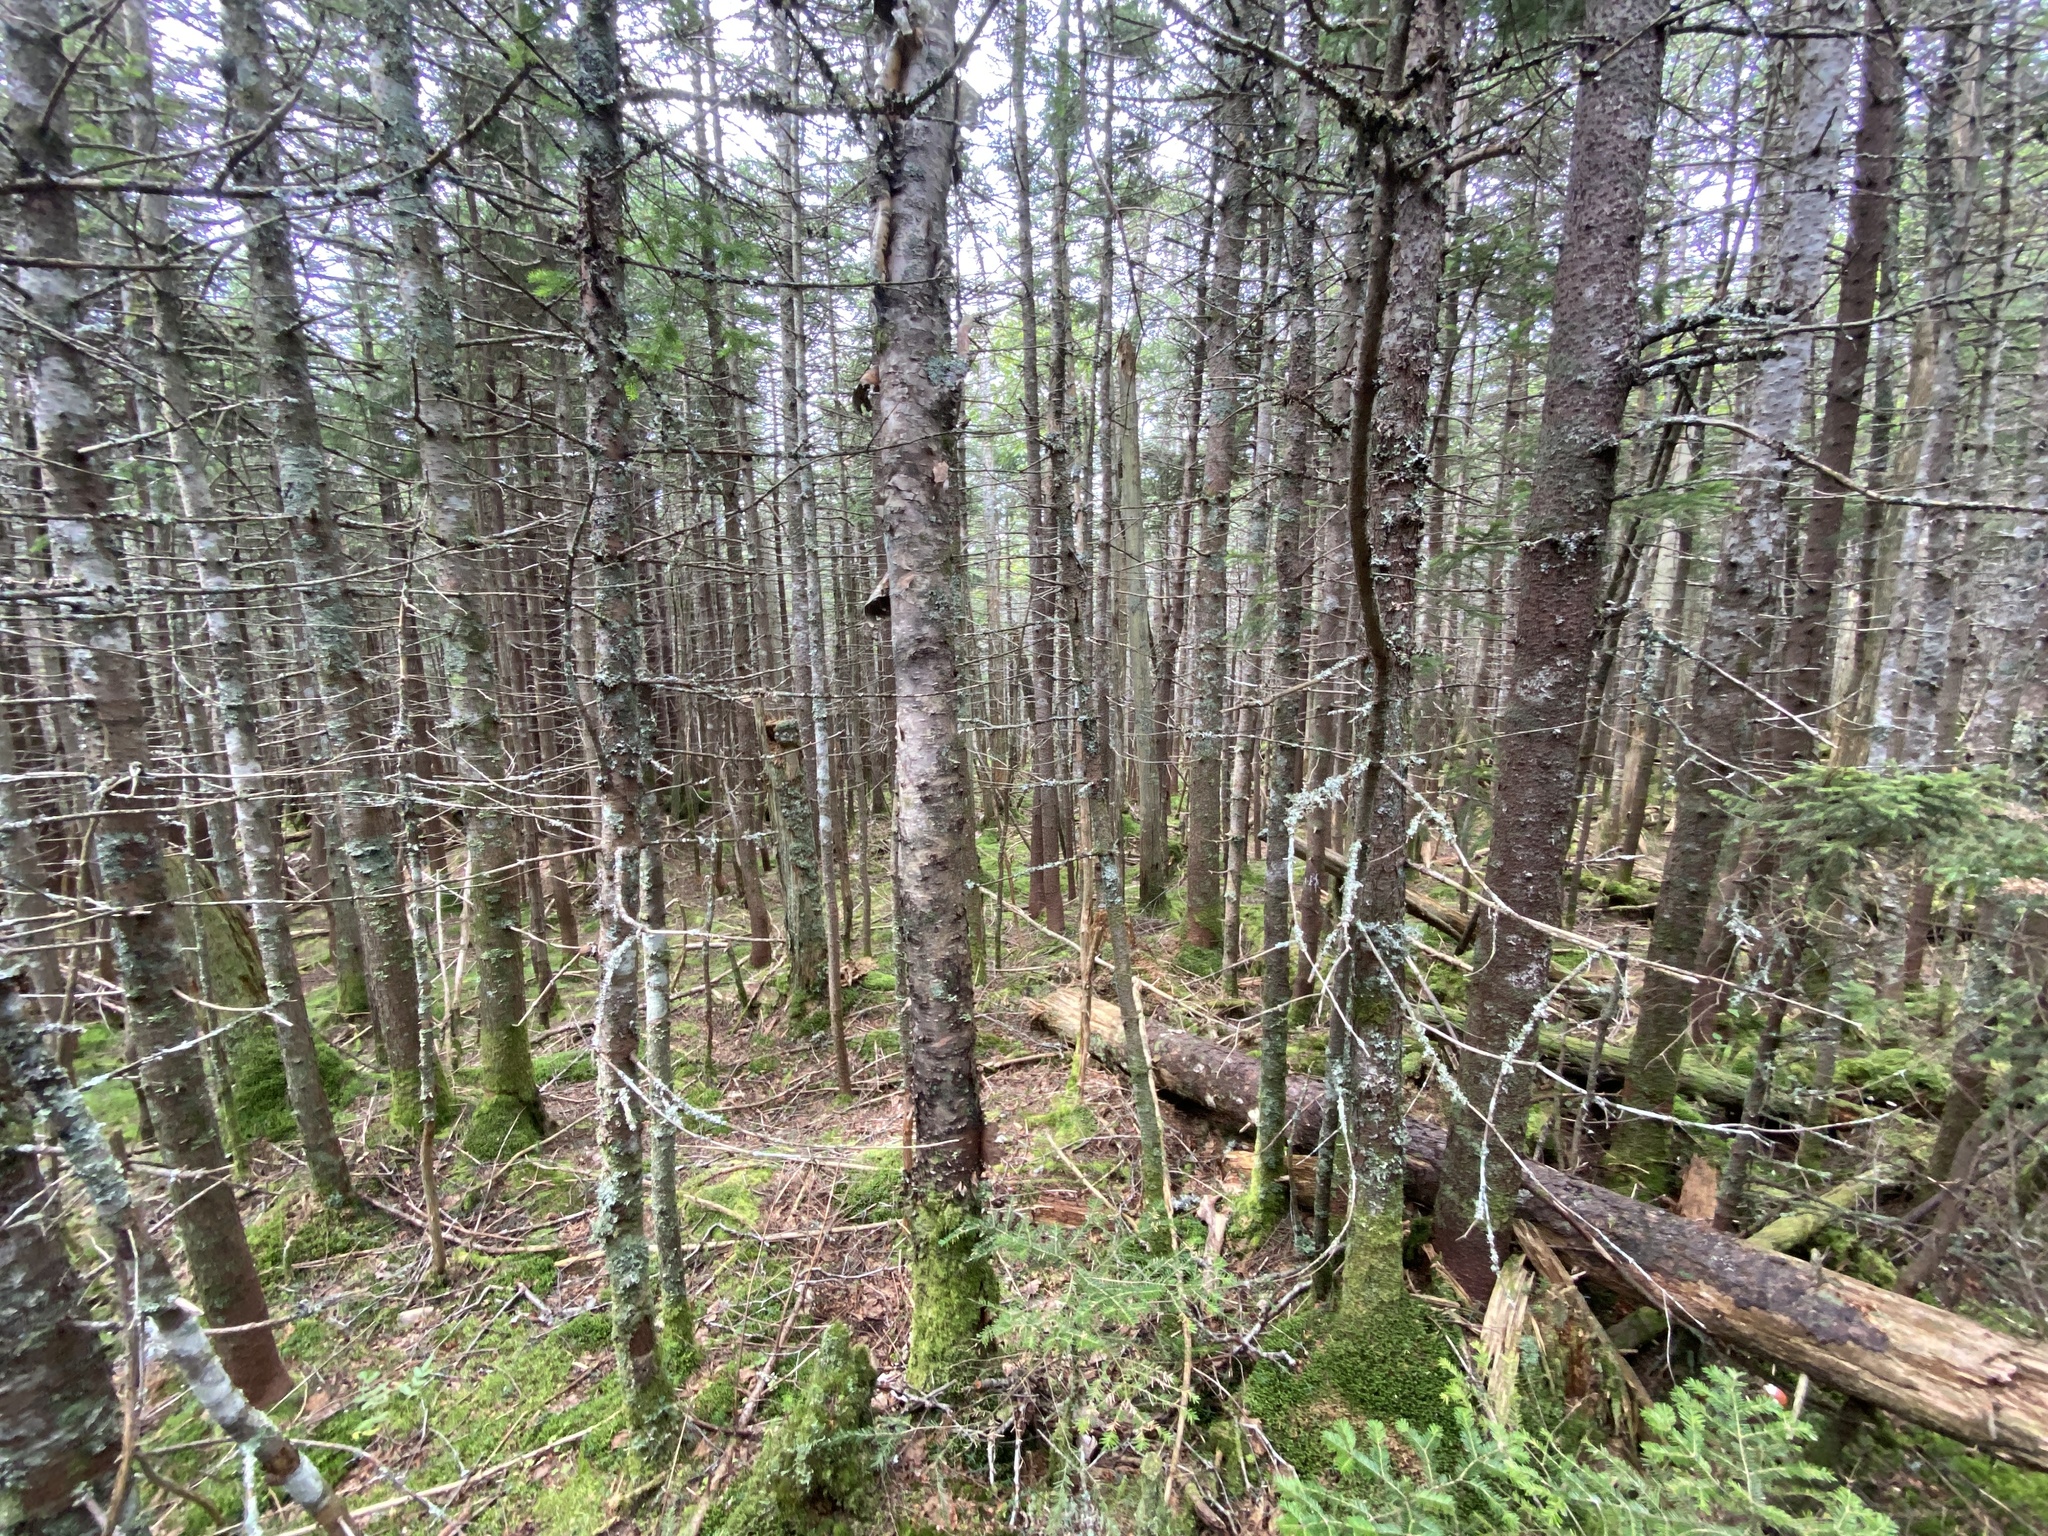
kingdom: Plantae
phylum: Tracheophyta
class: Pinopsida
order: Pinales
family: Pinaceae
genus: Abies
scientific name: Abies balsamea
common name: Balsam fir
